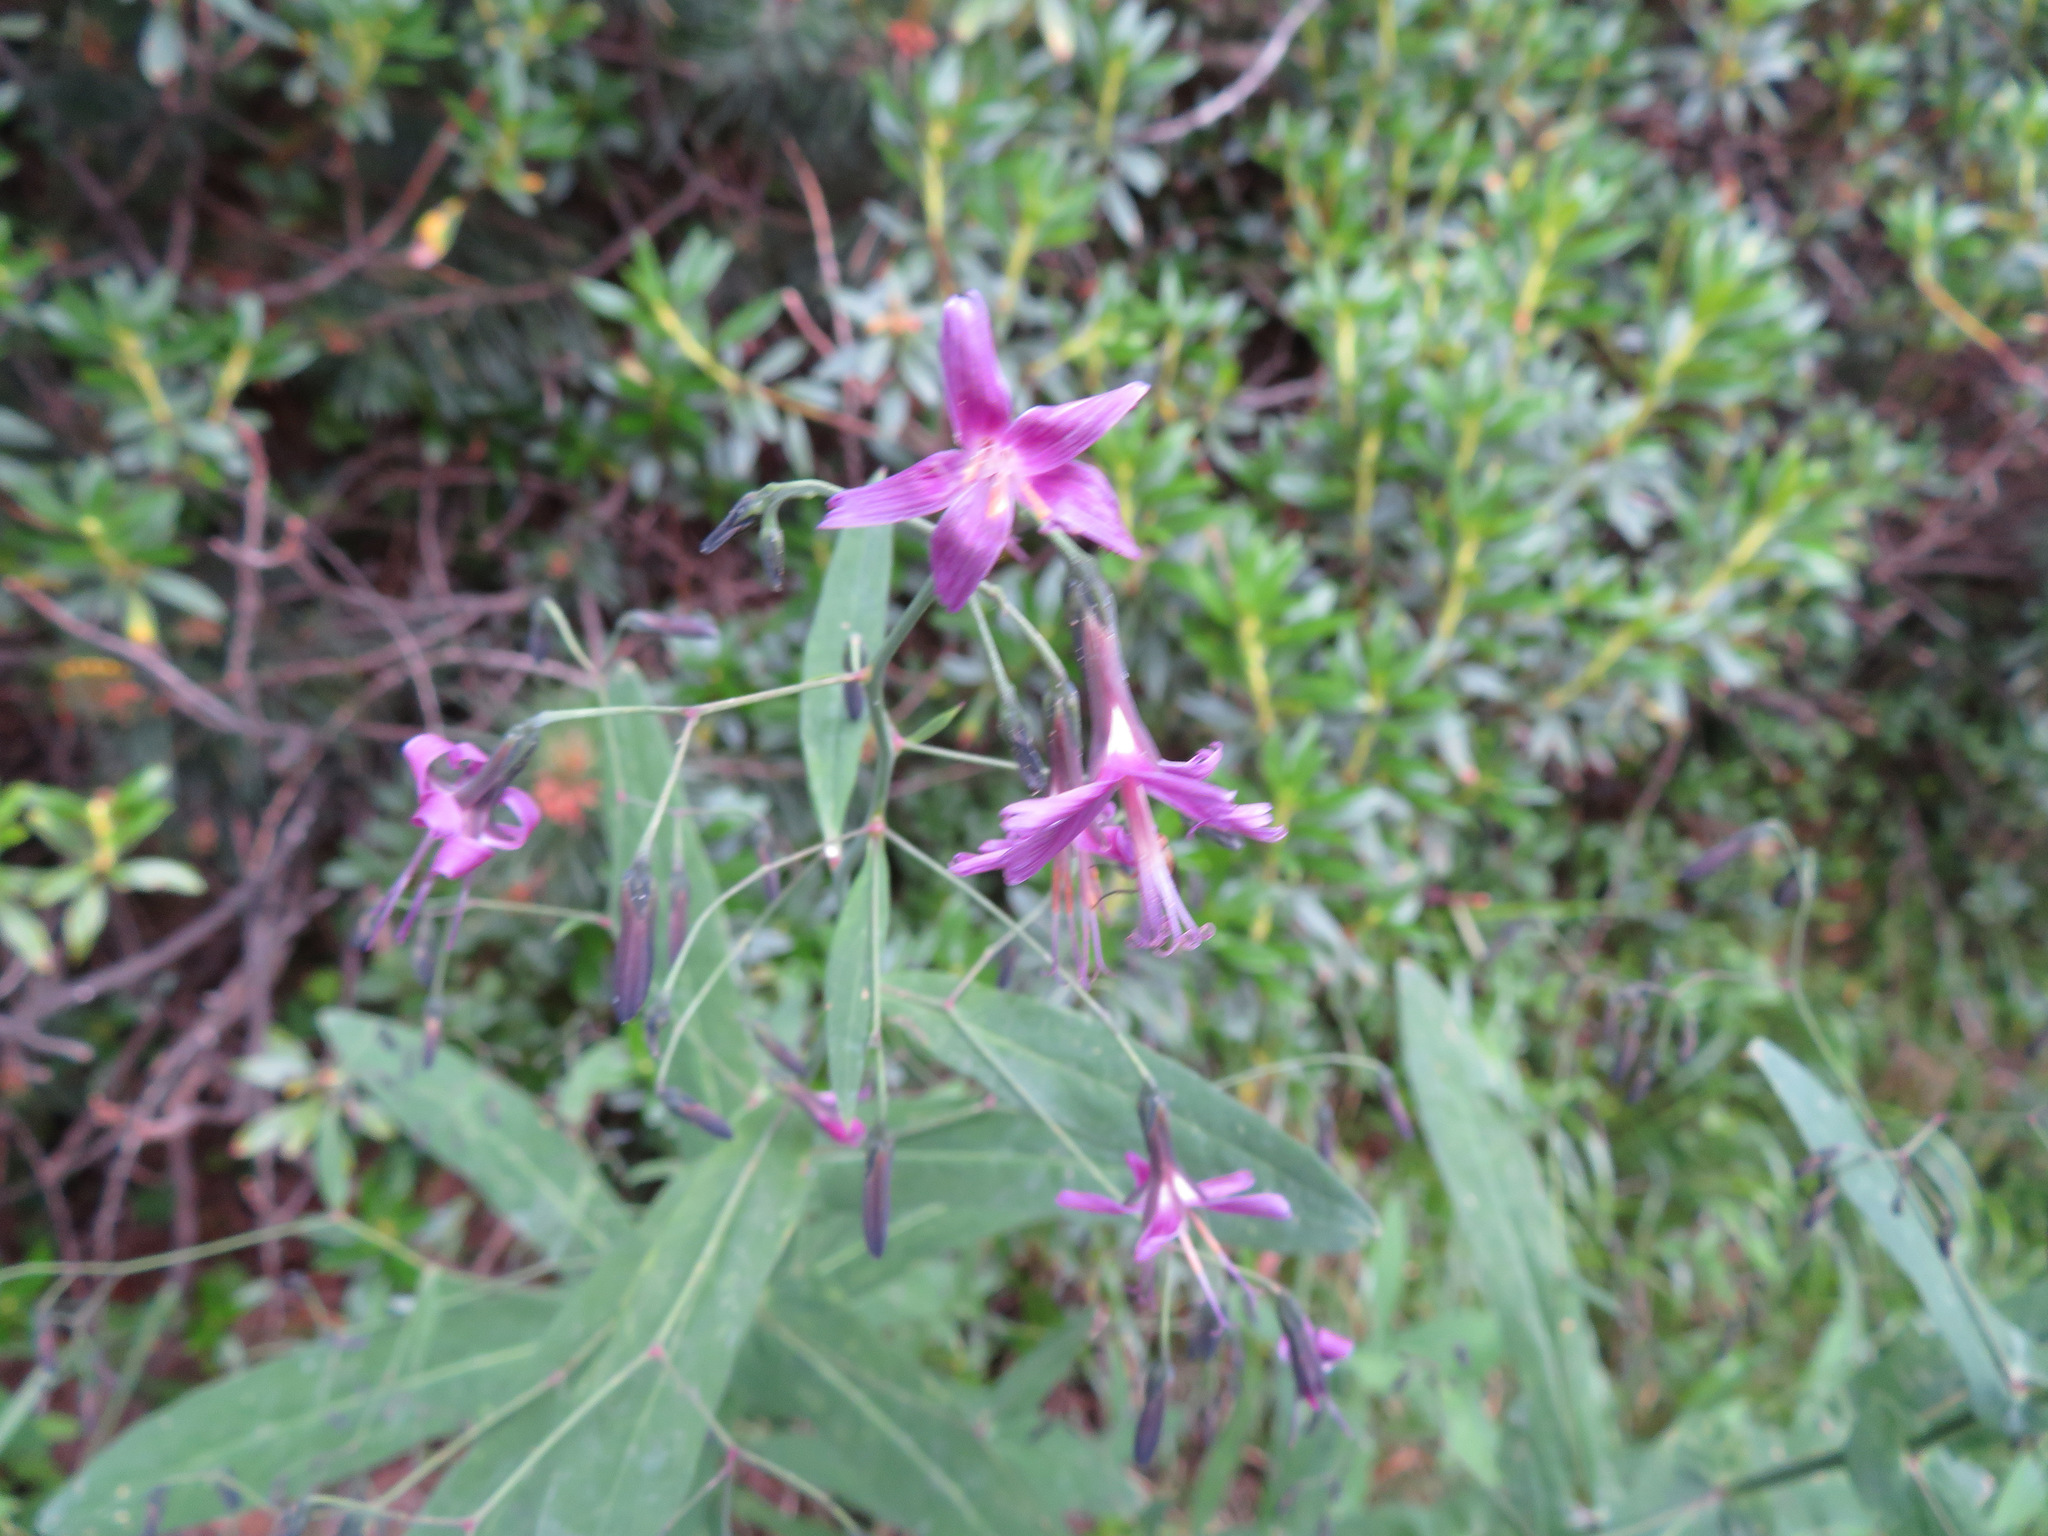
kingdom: Plantae
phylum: Tracheophyta
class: Magnoliopsida
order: Asterales
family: Asteraceae
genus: Prenanthes
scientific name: Prenanthes purpurea
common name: Purple lettuce
